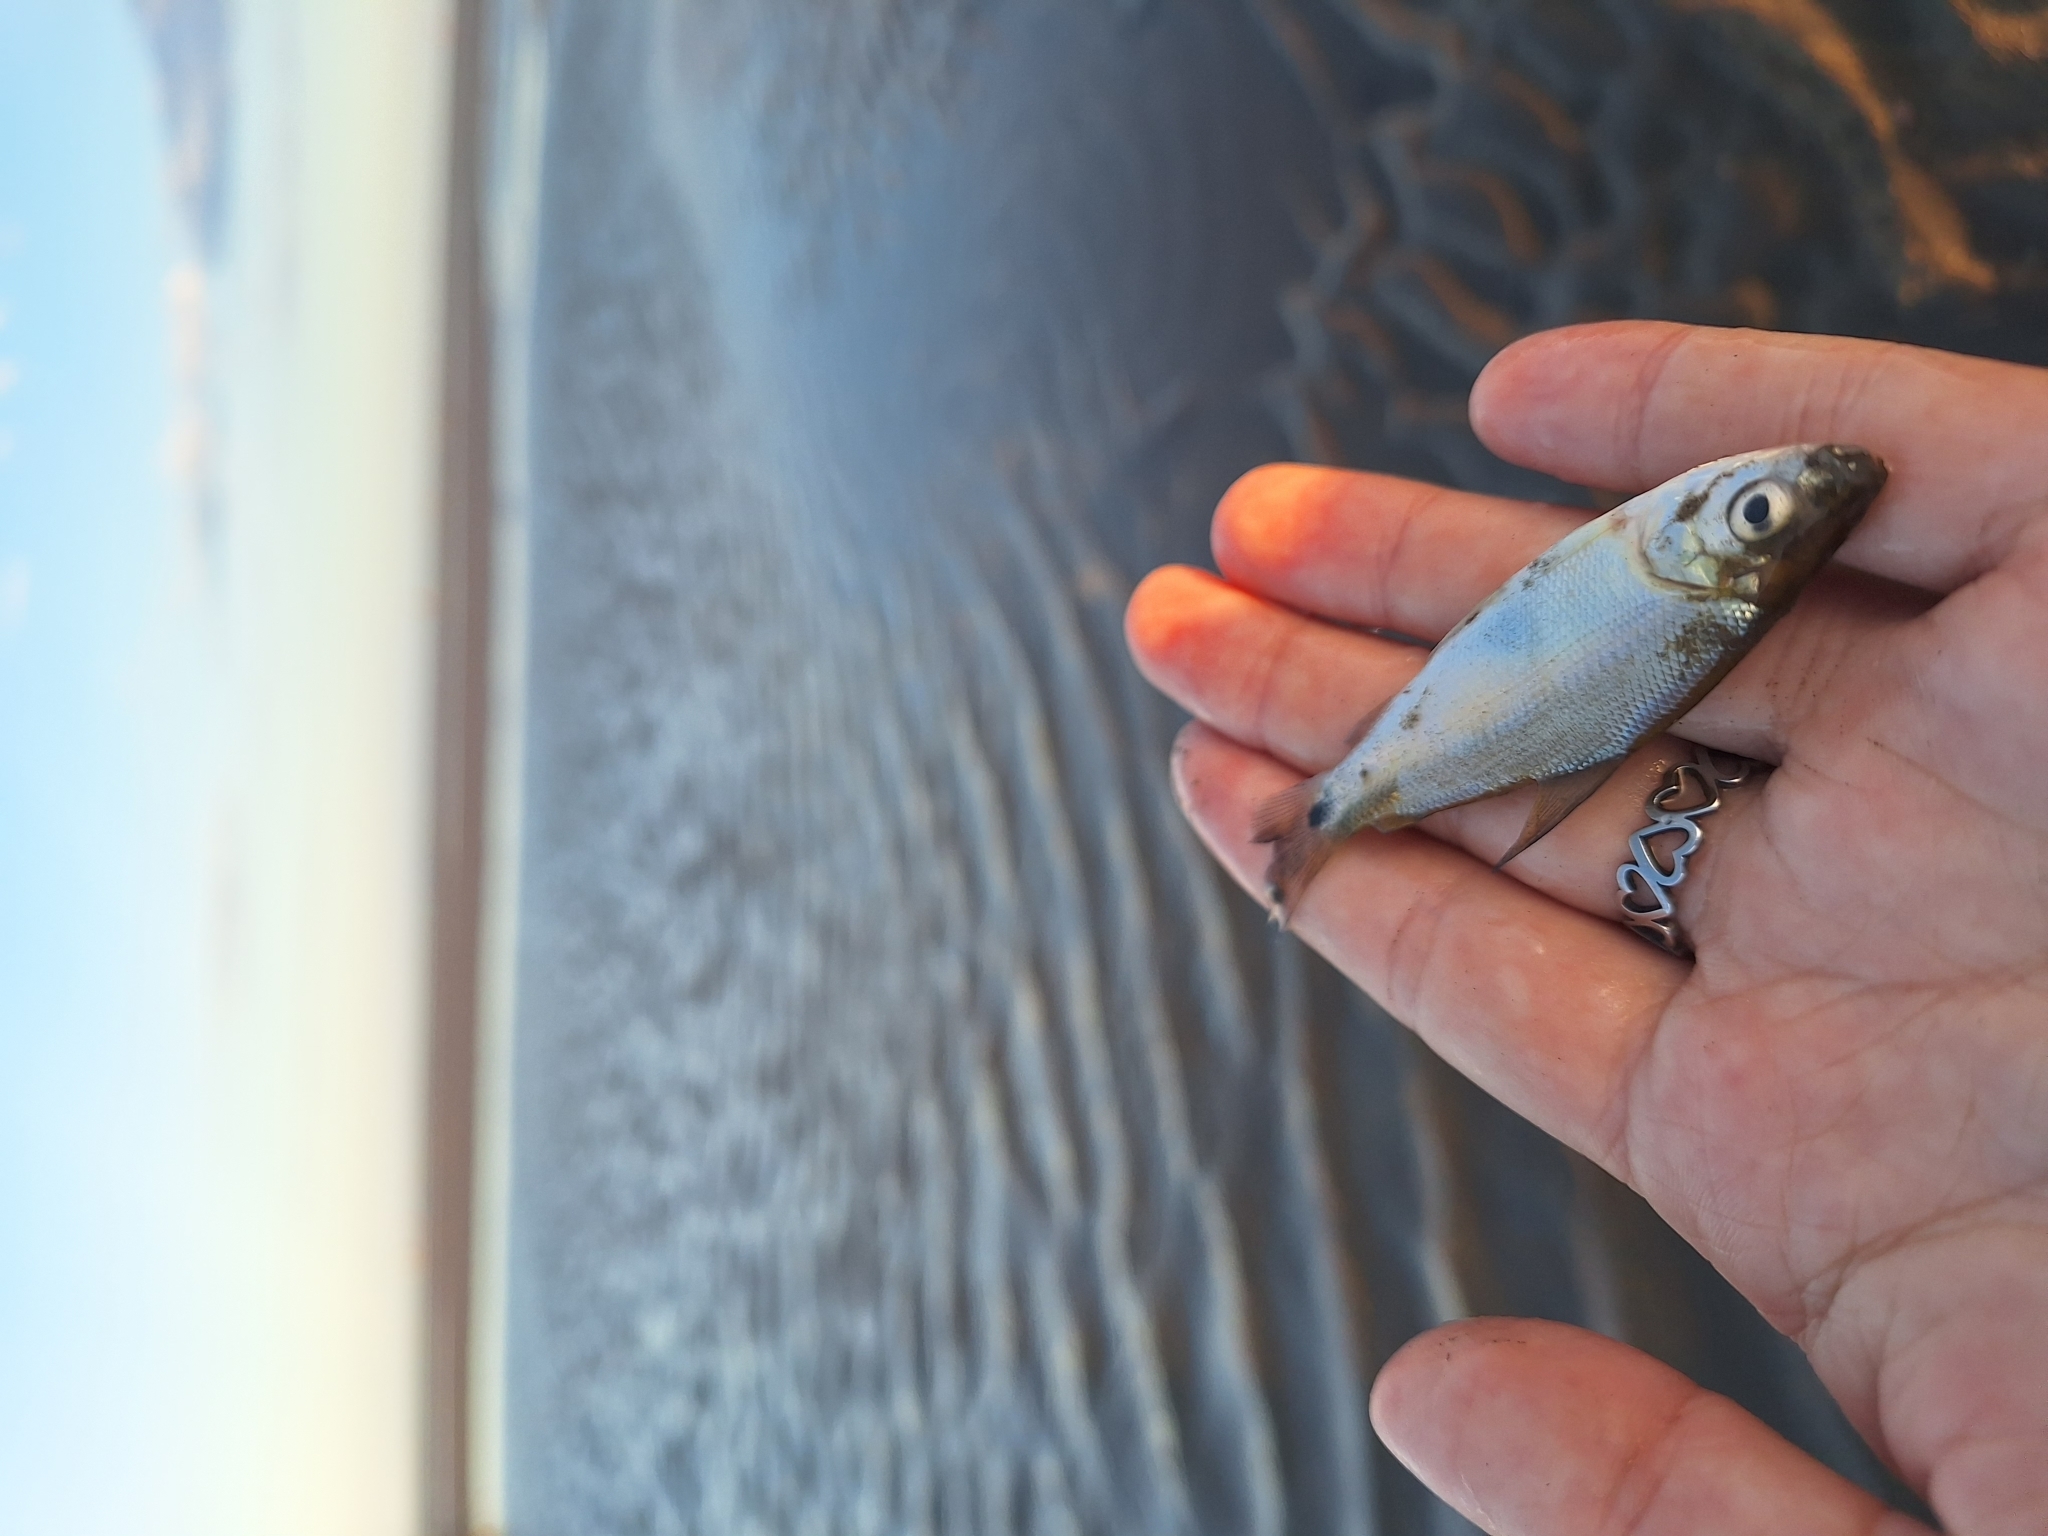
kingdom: Animalia
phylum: Chordata
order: Characiformes
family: Curimatidae
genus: Cyphocharax
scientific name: Cyphocharax platanus
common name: Characin
